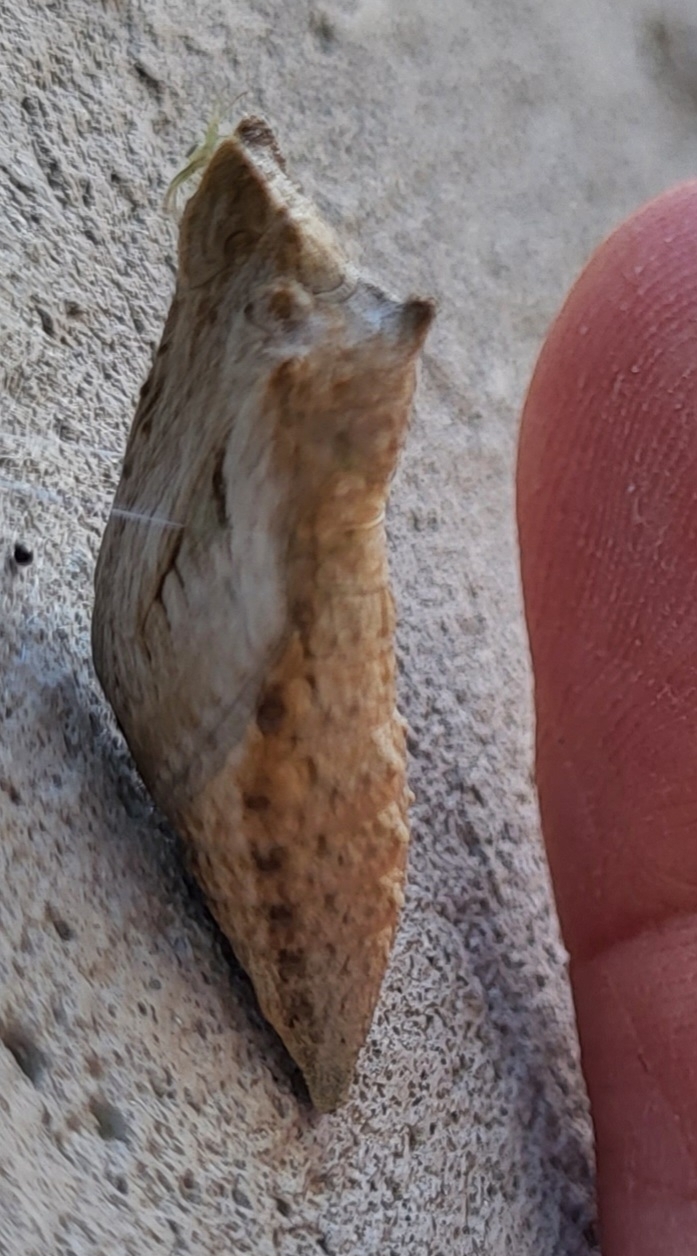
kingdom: Animalia
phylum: Arthropoda
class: Insecta
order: Lepidoptera
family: Papilionidae
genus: Papilio
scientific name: Papilio polyxenes
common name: Black swallowtail
